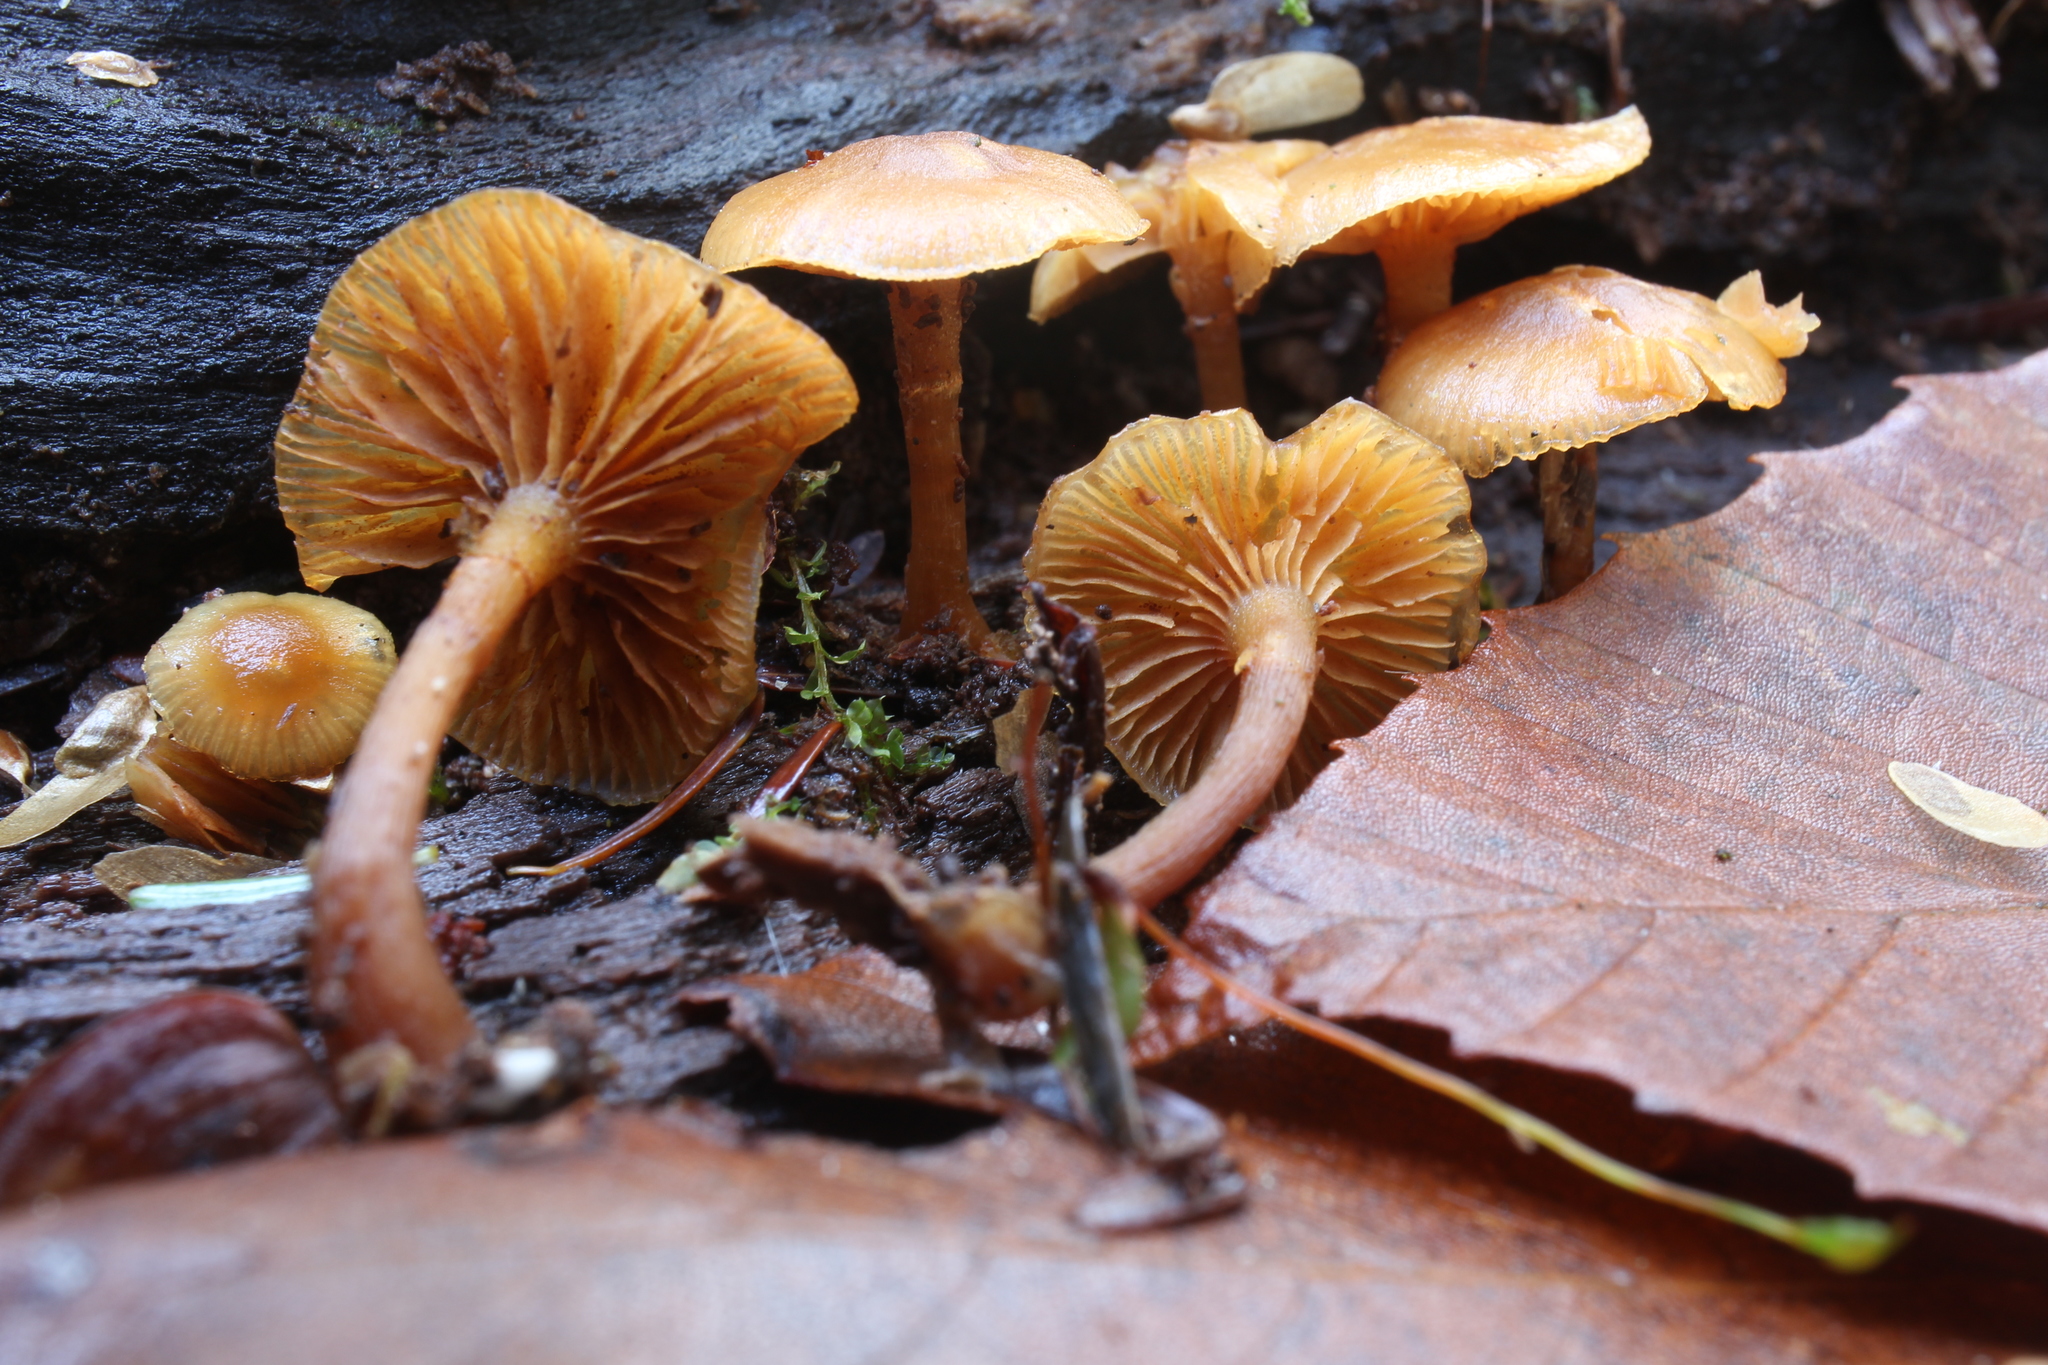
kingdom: Fungi
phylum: Basidiomycota
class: Agaricomycetes
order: Agaricales
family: Hymenogastraceae
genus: Galerina
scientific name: Galerina marginata
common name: Funeral bell
